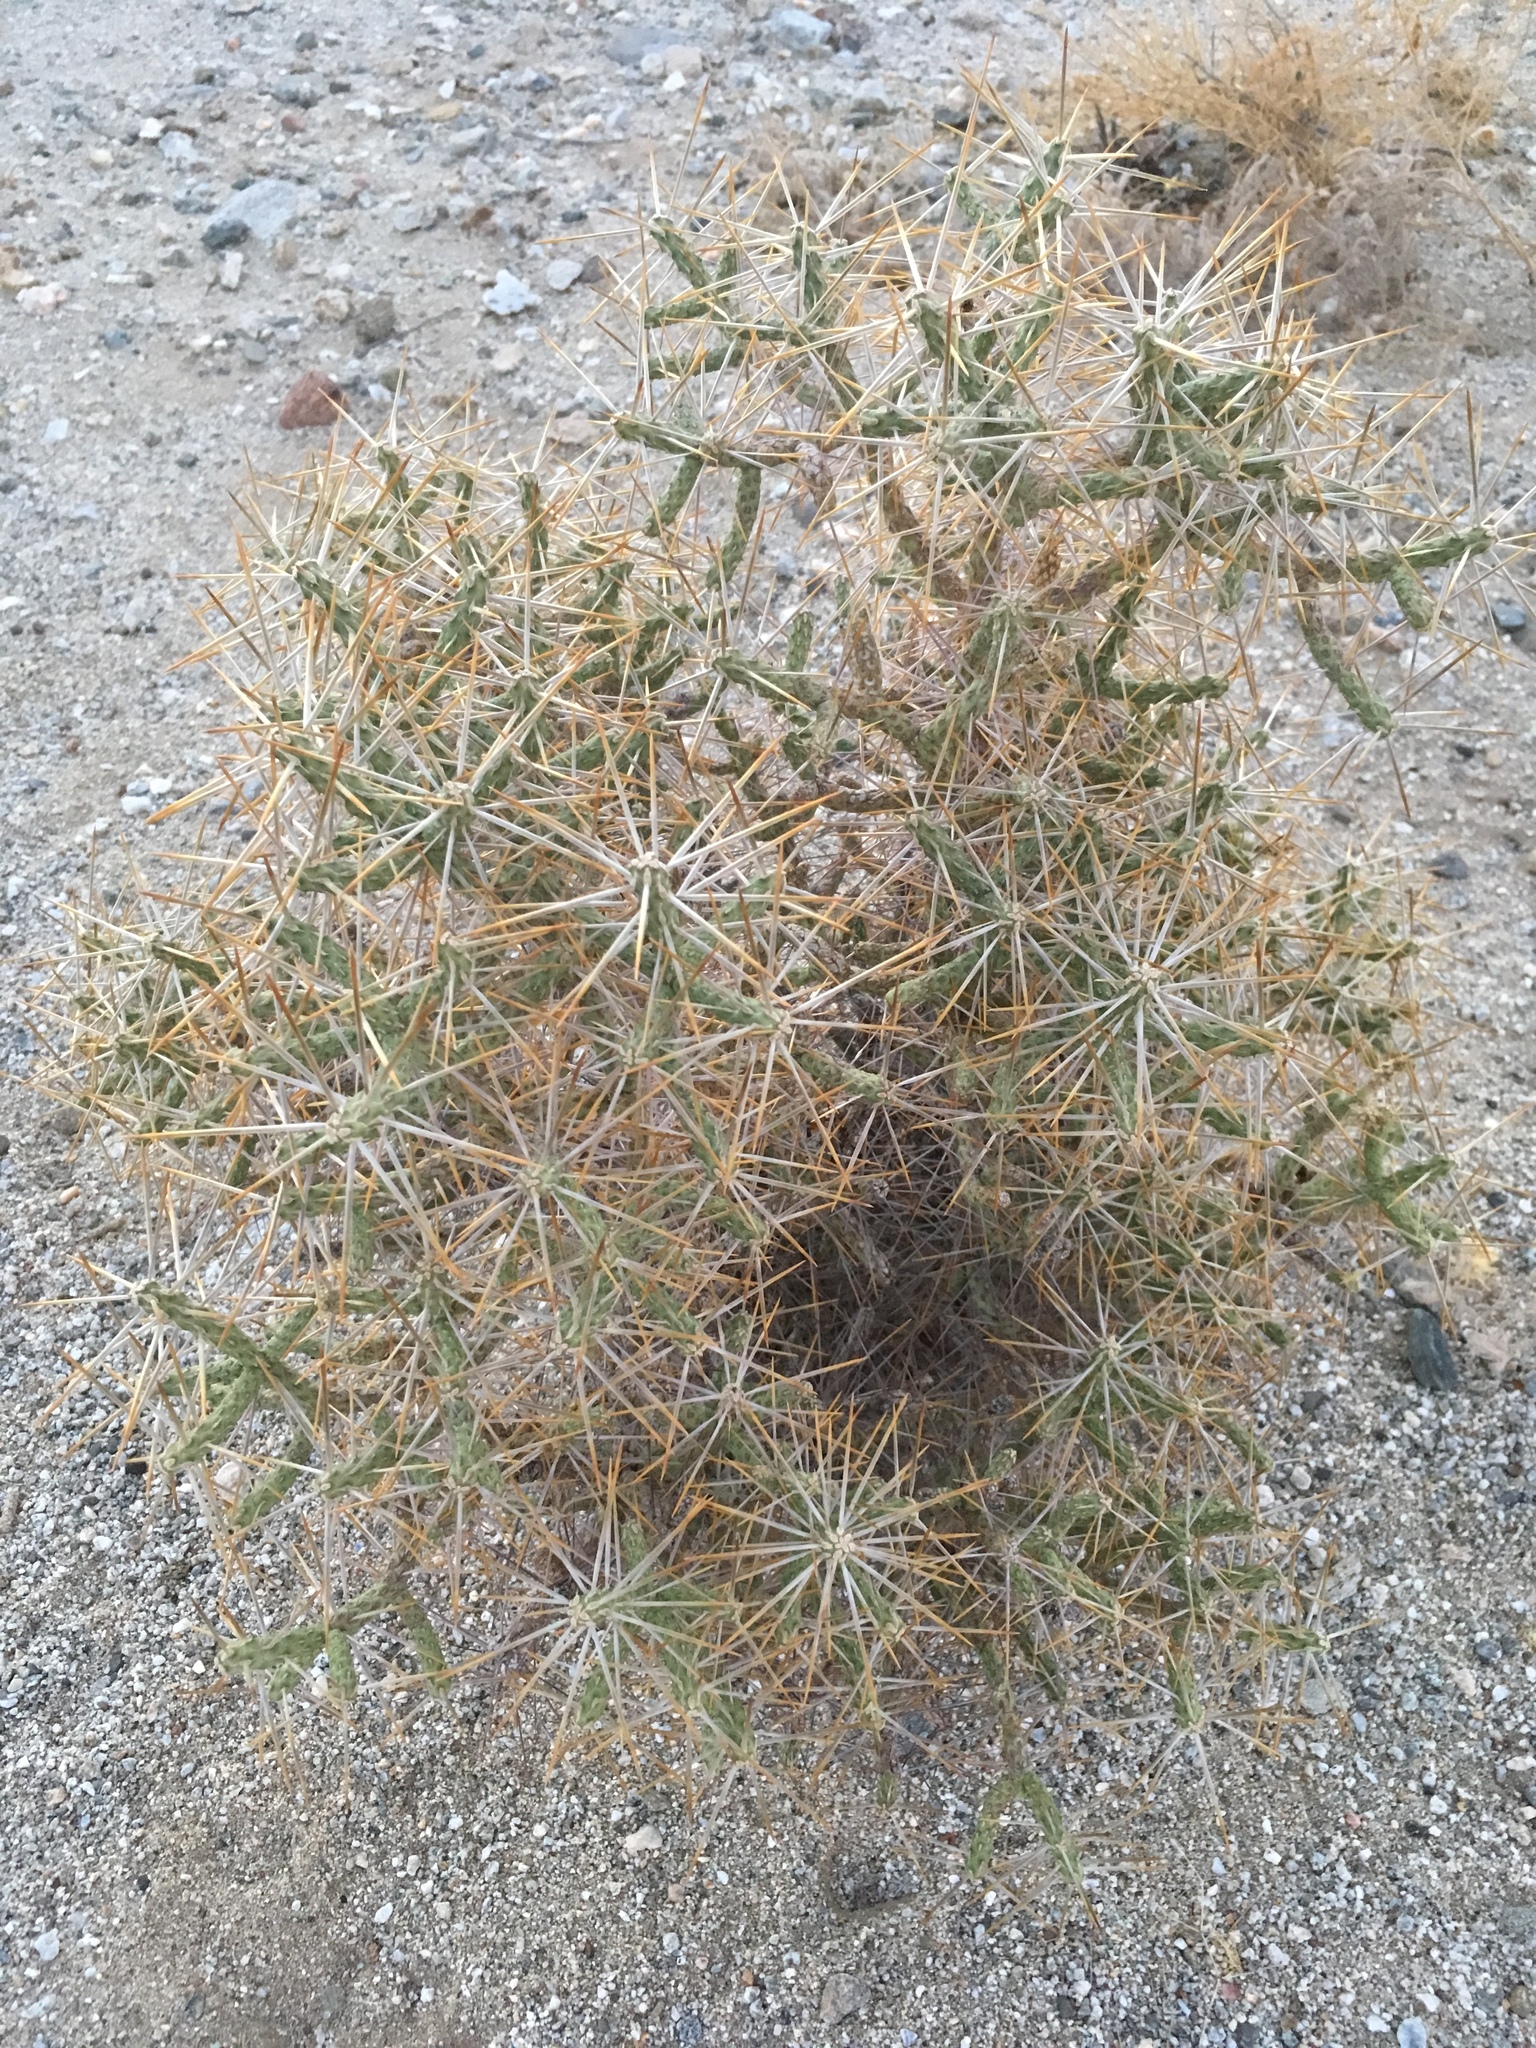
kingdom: Plantae
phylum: Tracheophyta
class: Magnoliopsida
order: Caryophyllales
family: Cactaceae
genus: Cylindropuntia
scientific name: Cylindropuntia ramosissima
